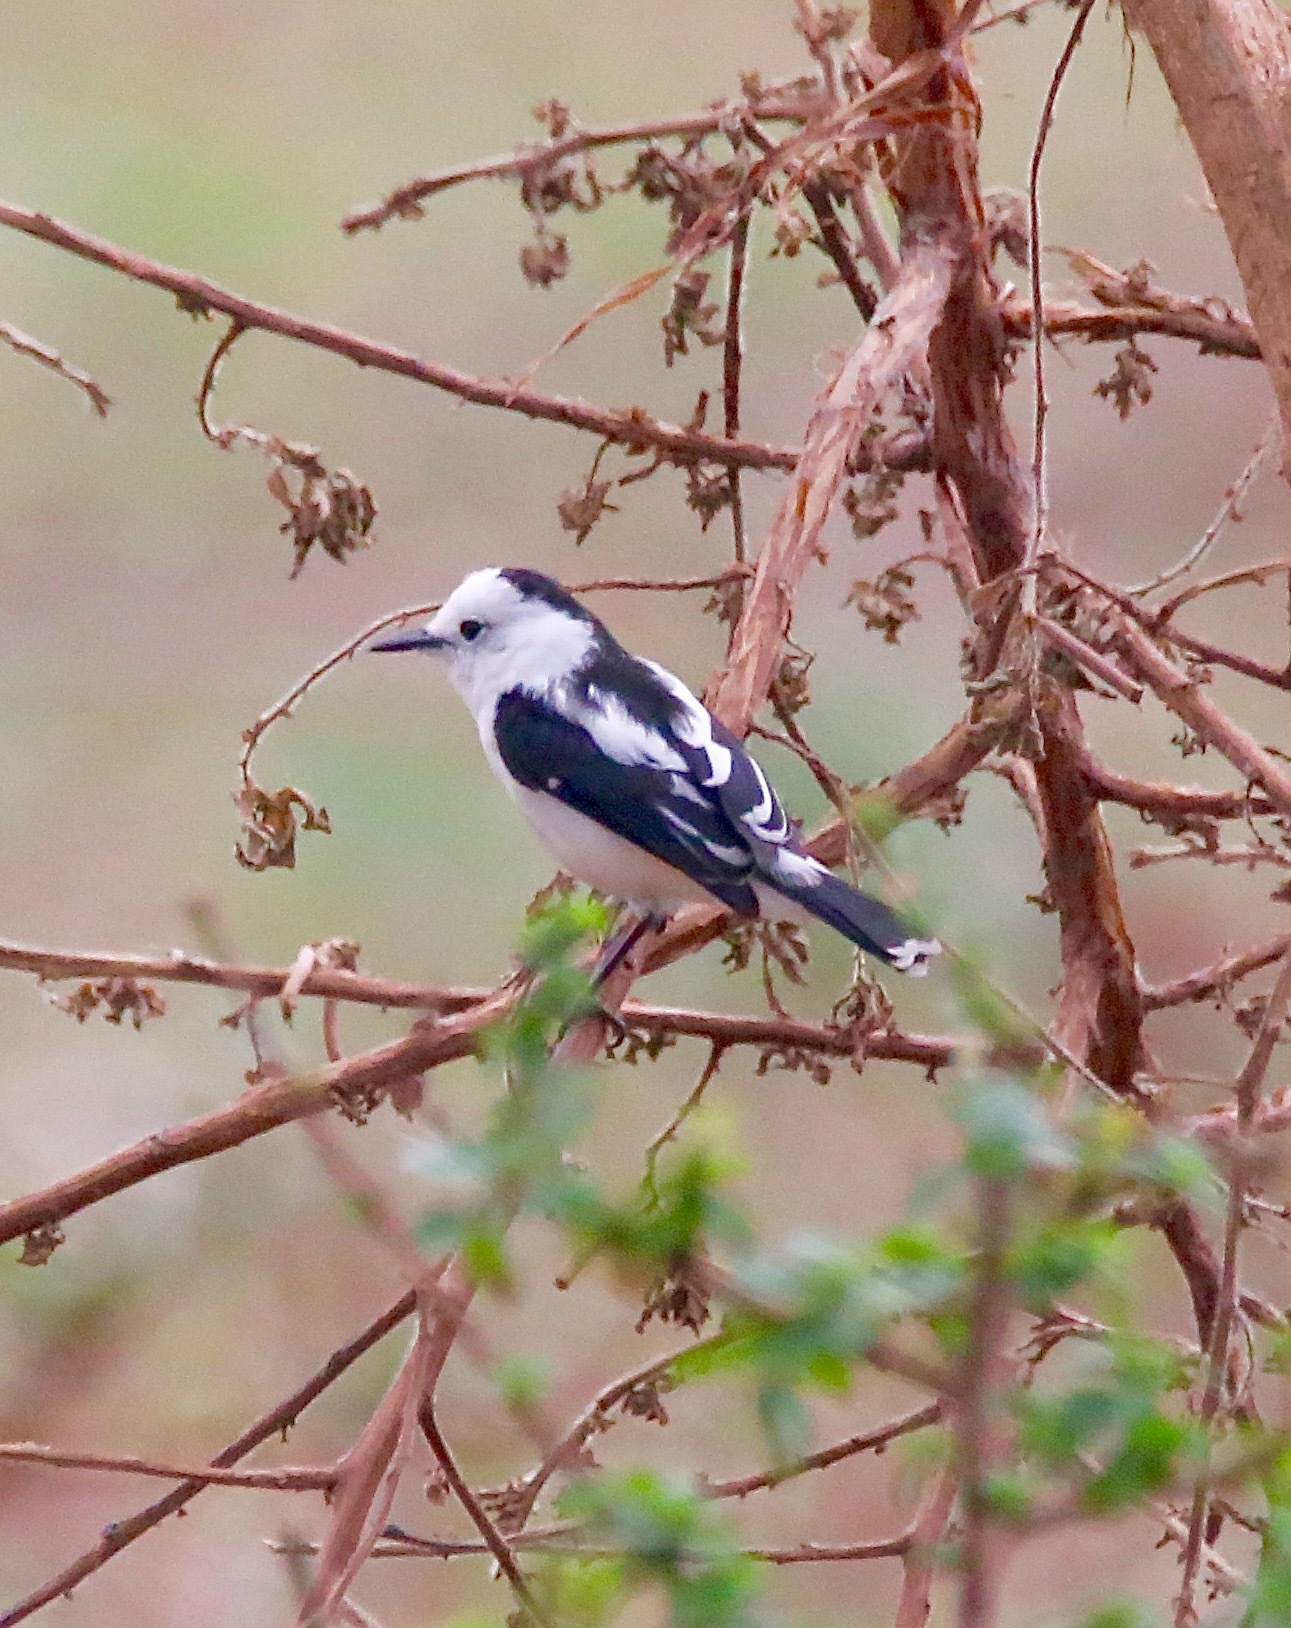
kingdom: Animalia
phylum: Chordata
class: Aves
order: Passeriformes
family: Tyrannidae
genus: Fluvicola
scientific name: Fluvicola pica
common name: Pied water-tyrant
